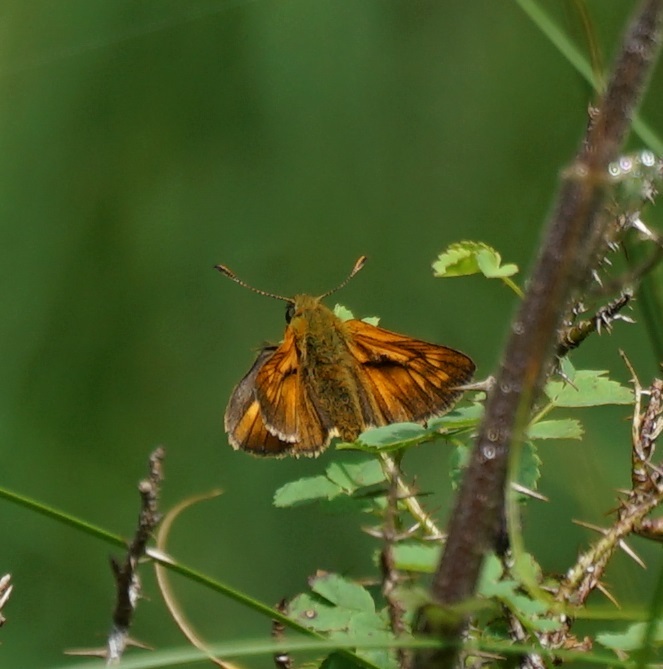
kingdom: Animalia
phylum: Arthropoda
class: Insecta
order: Lepidoptera
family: Hesperiidae
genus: Ochlodes
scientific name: Ochlodes venata
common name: Large skipper
